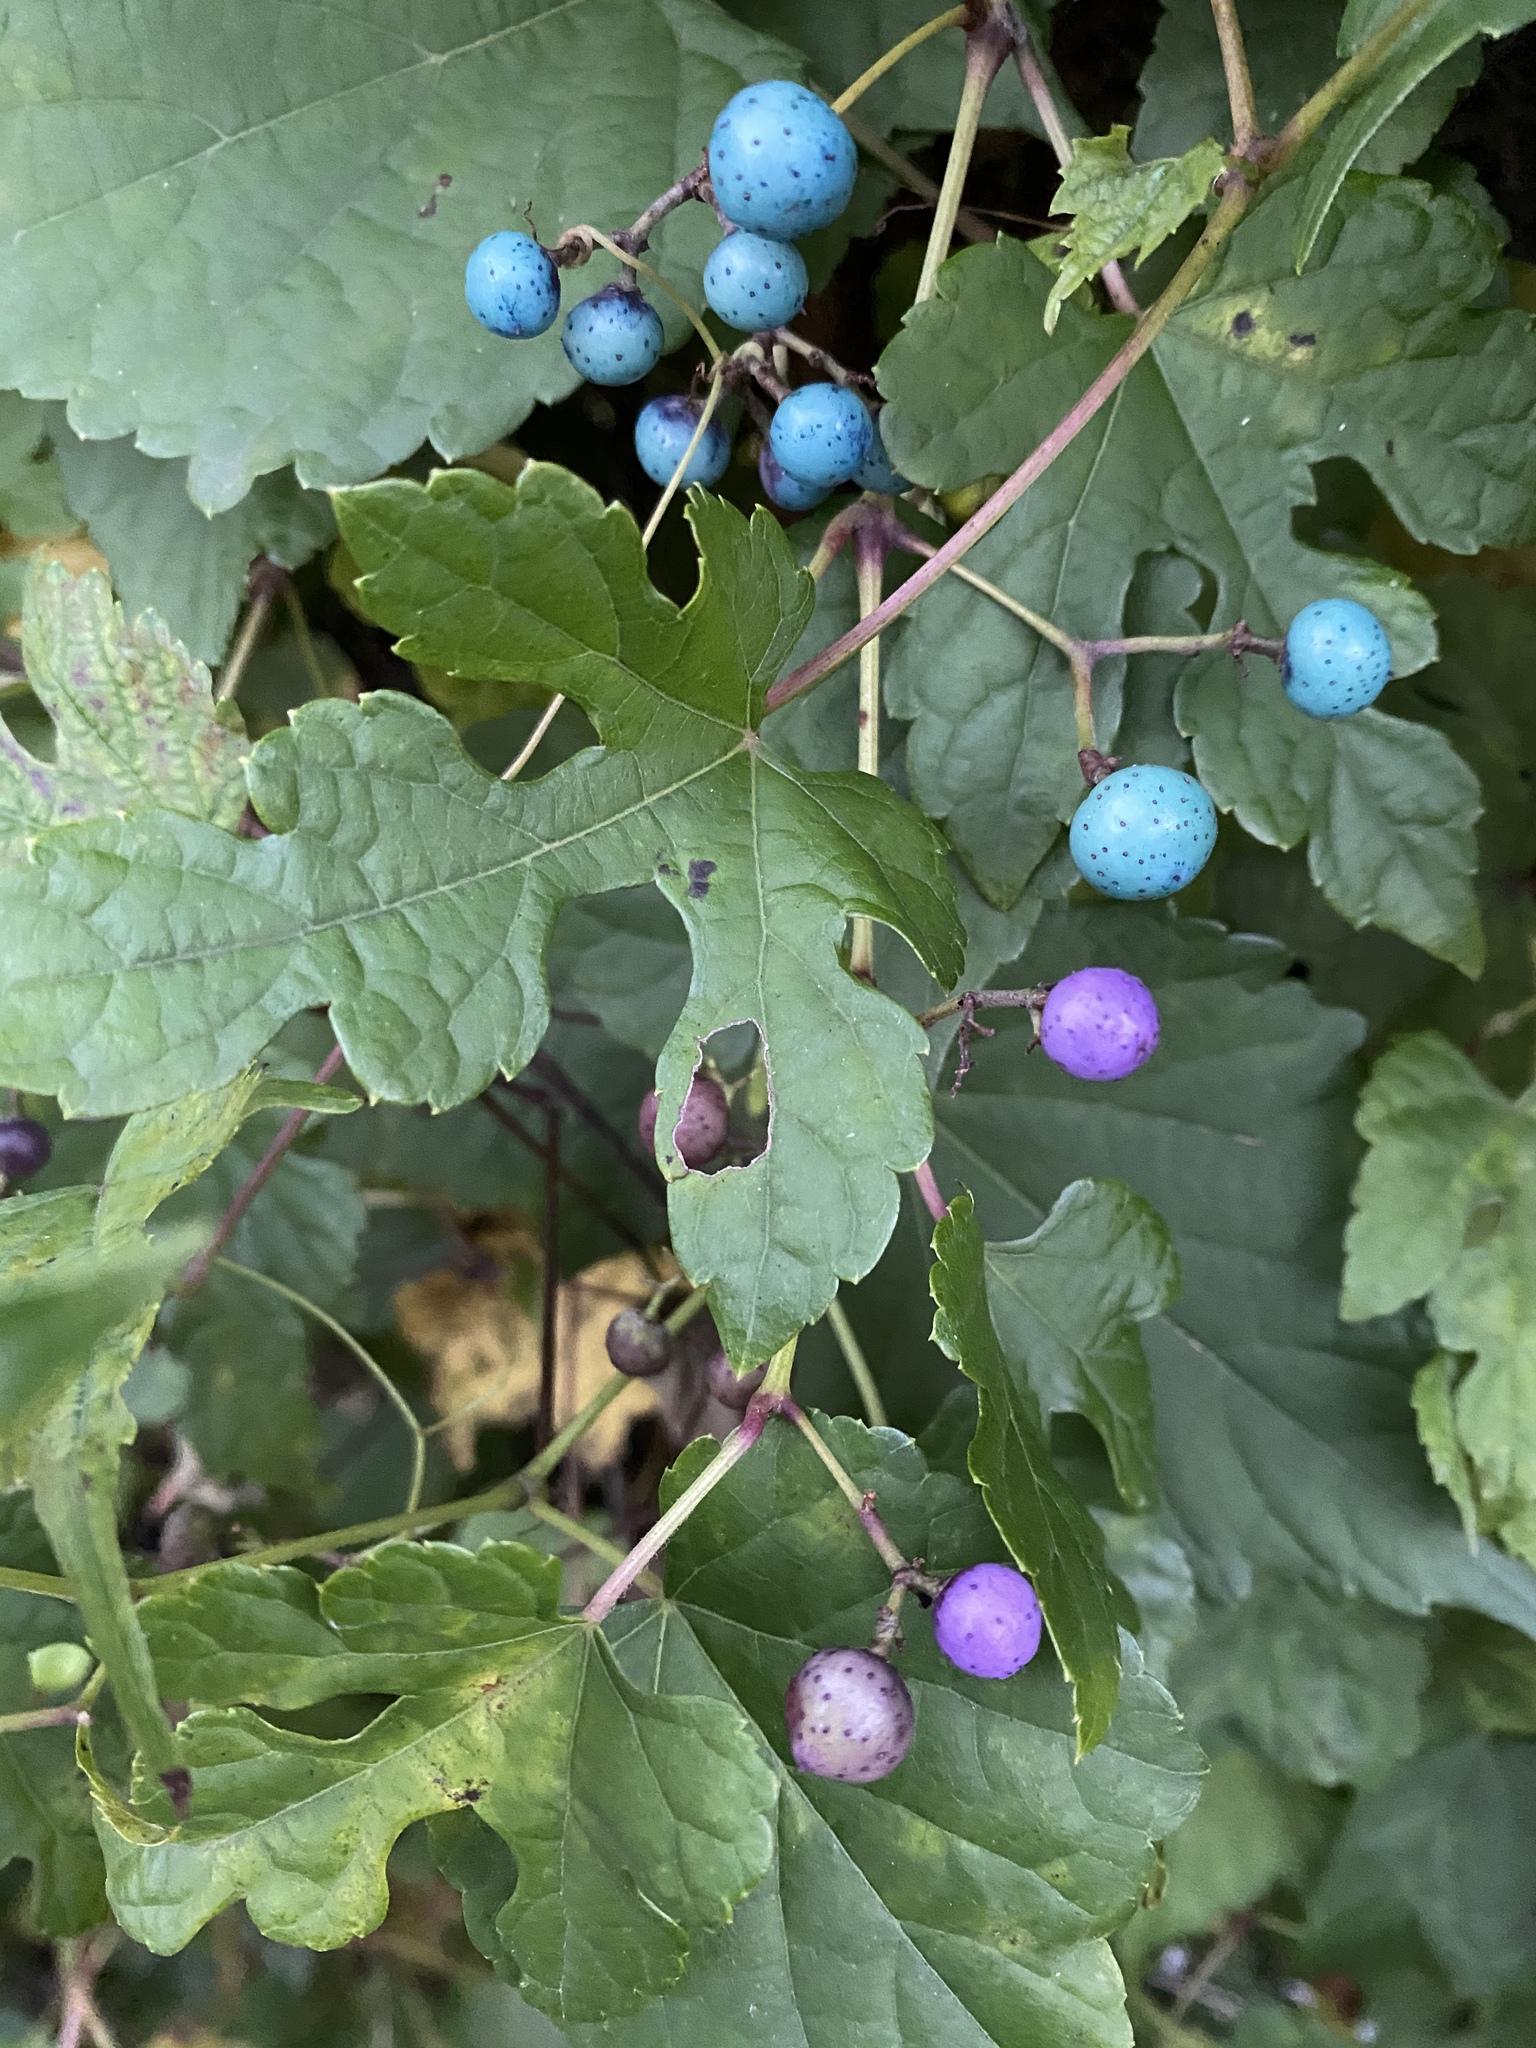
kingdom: Plantae
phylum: Tracheophyta
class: Magnoliopsida
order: Vitales
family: Vitaceae
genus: Ampelopsis
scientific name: Ampelopsis glandulosa
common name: Amur peppervine
